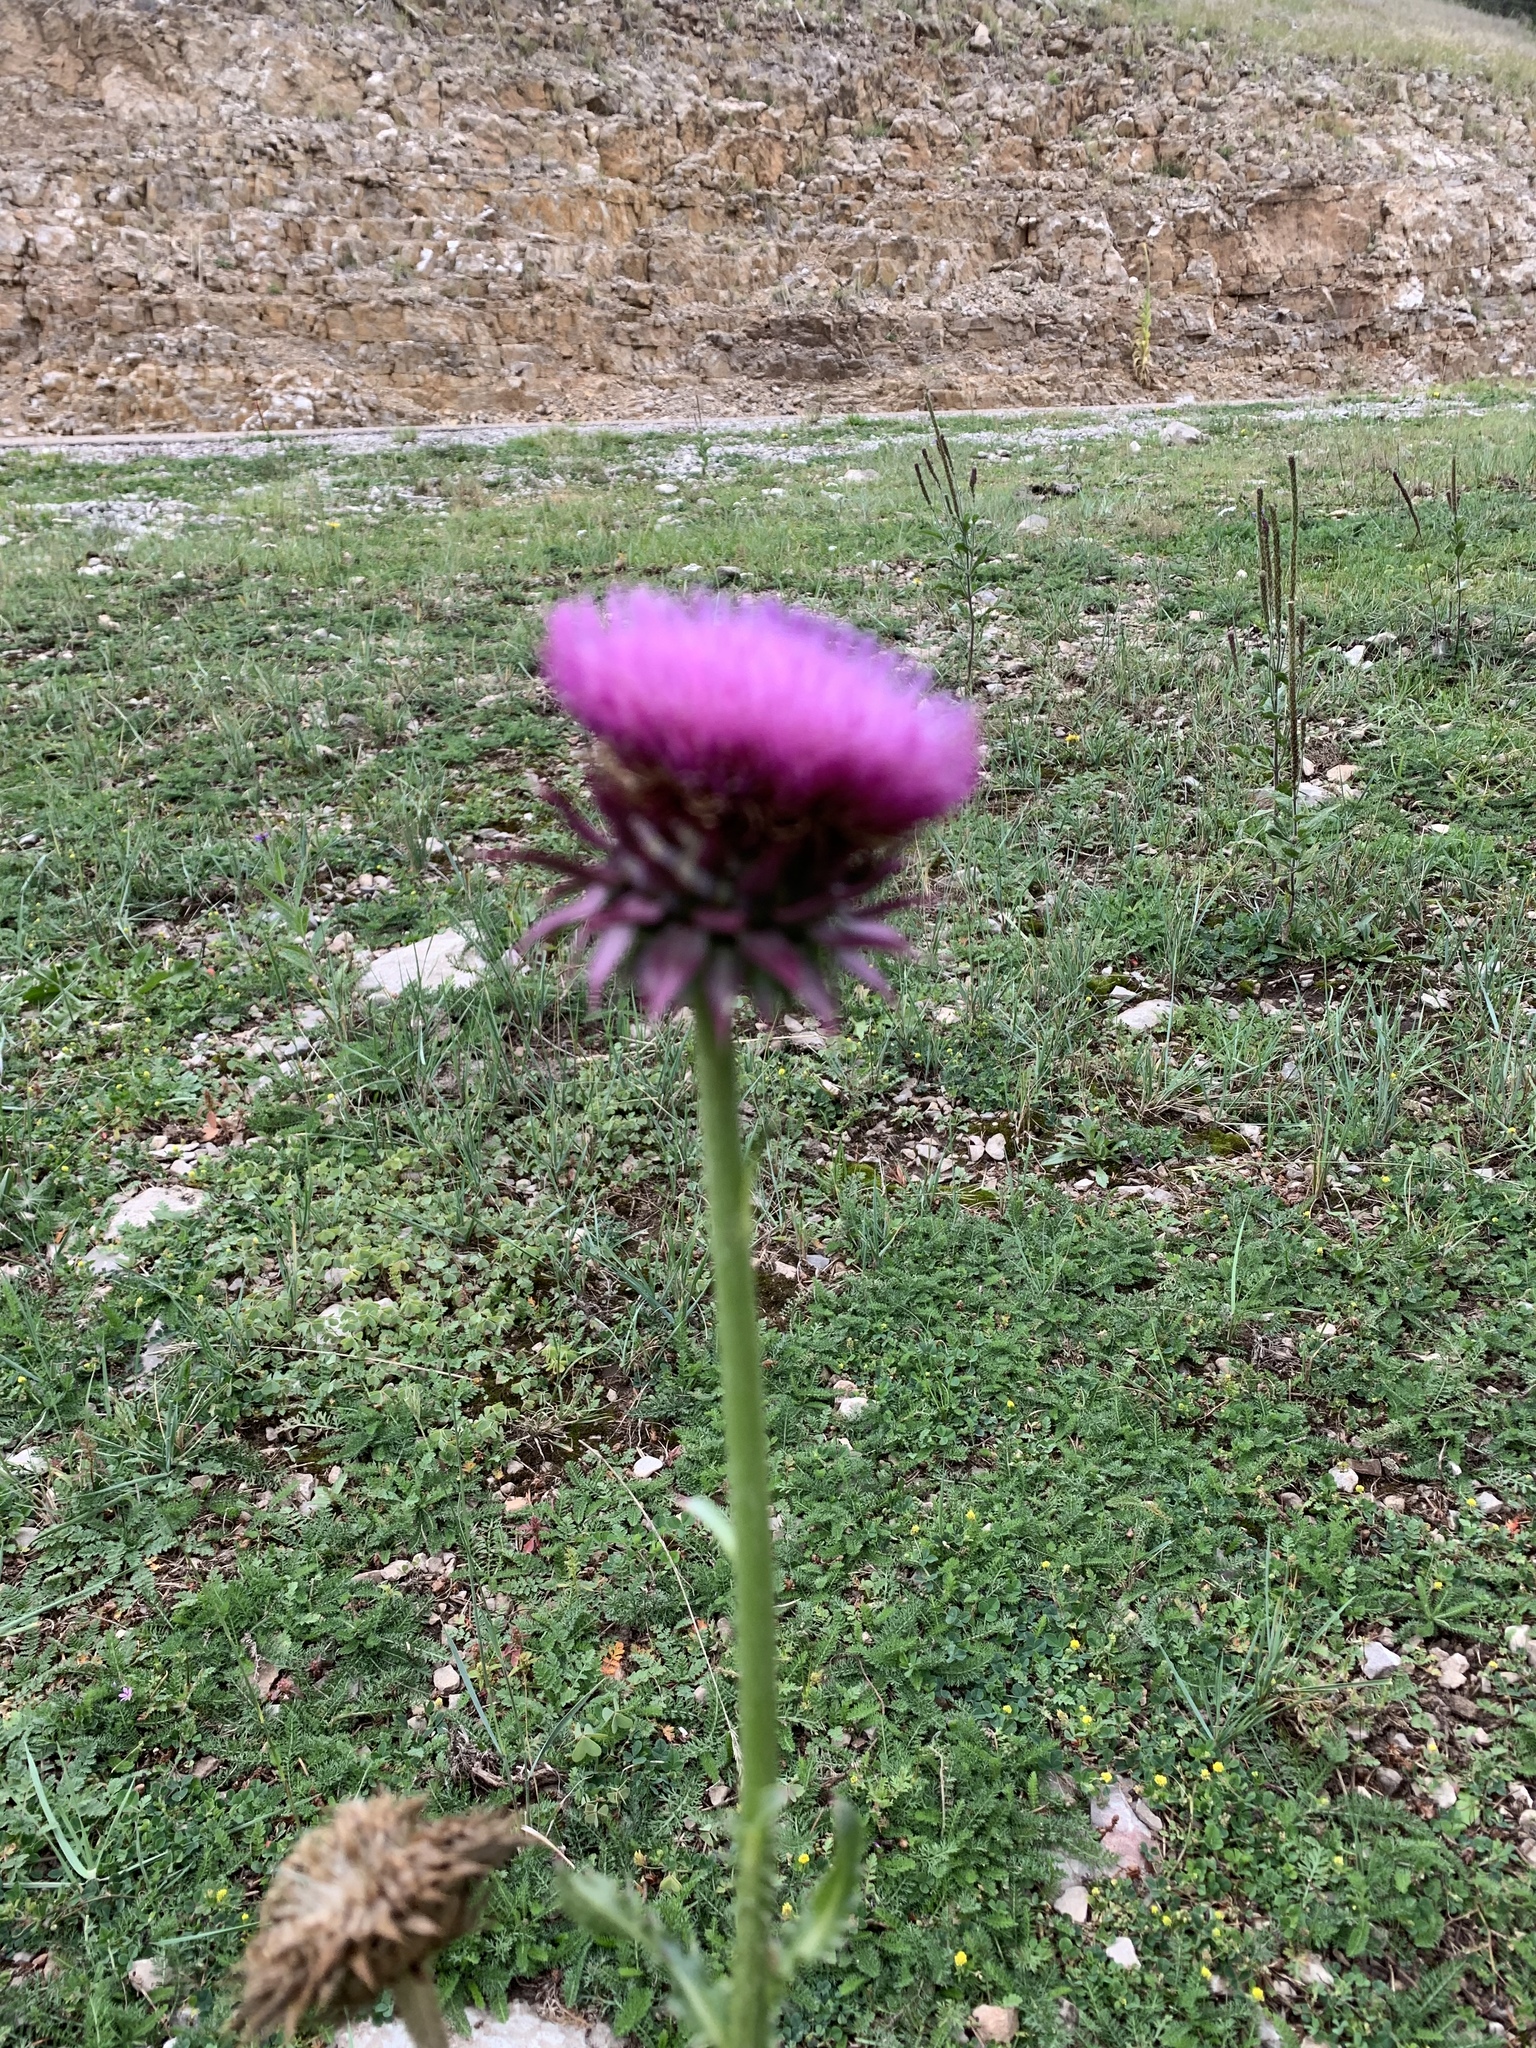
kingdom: Plantae
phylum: Tracheophyta
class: Magnoliopsida
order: Asterales
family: Asteraceae
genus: Carduus
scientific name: Carduus nutans
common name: Musk thistle
